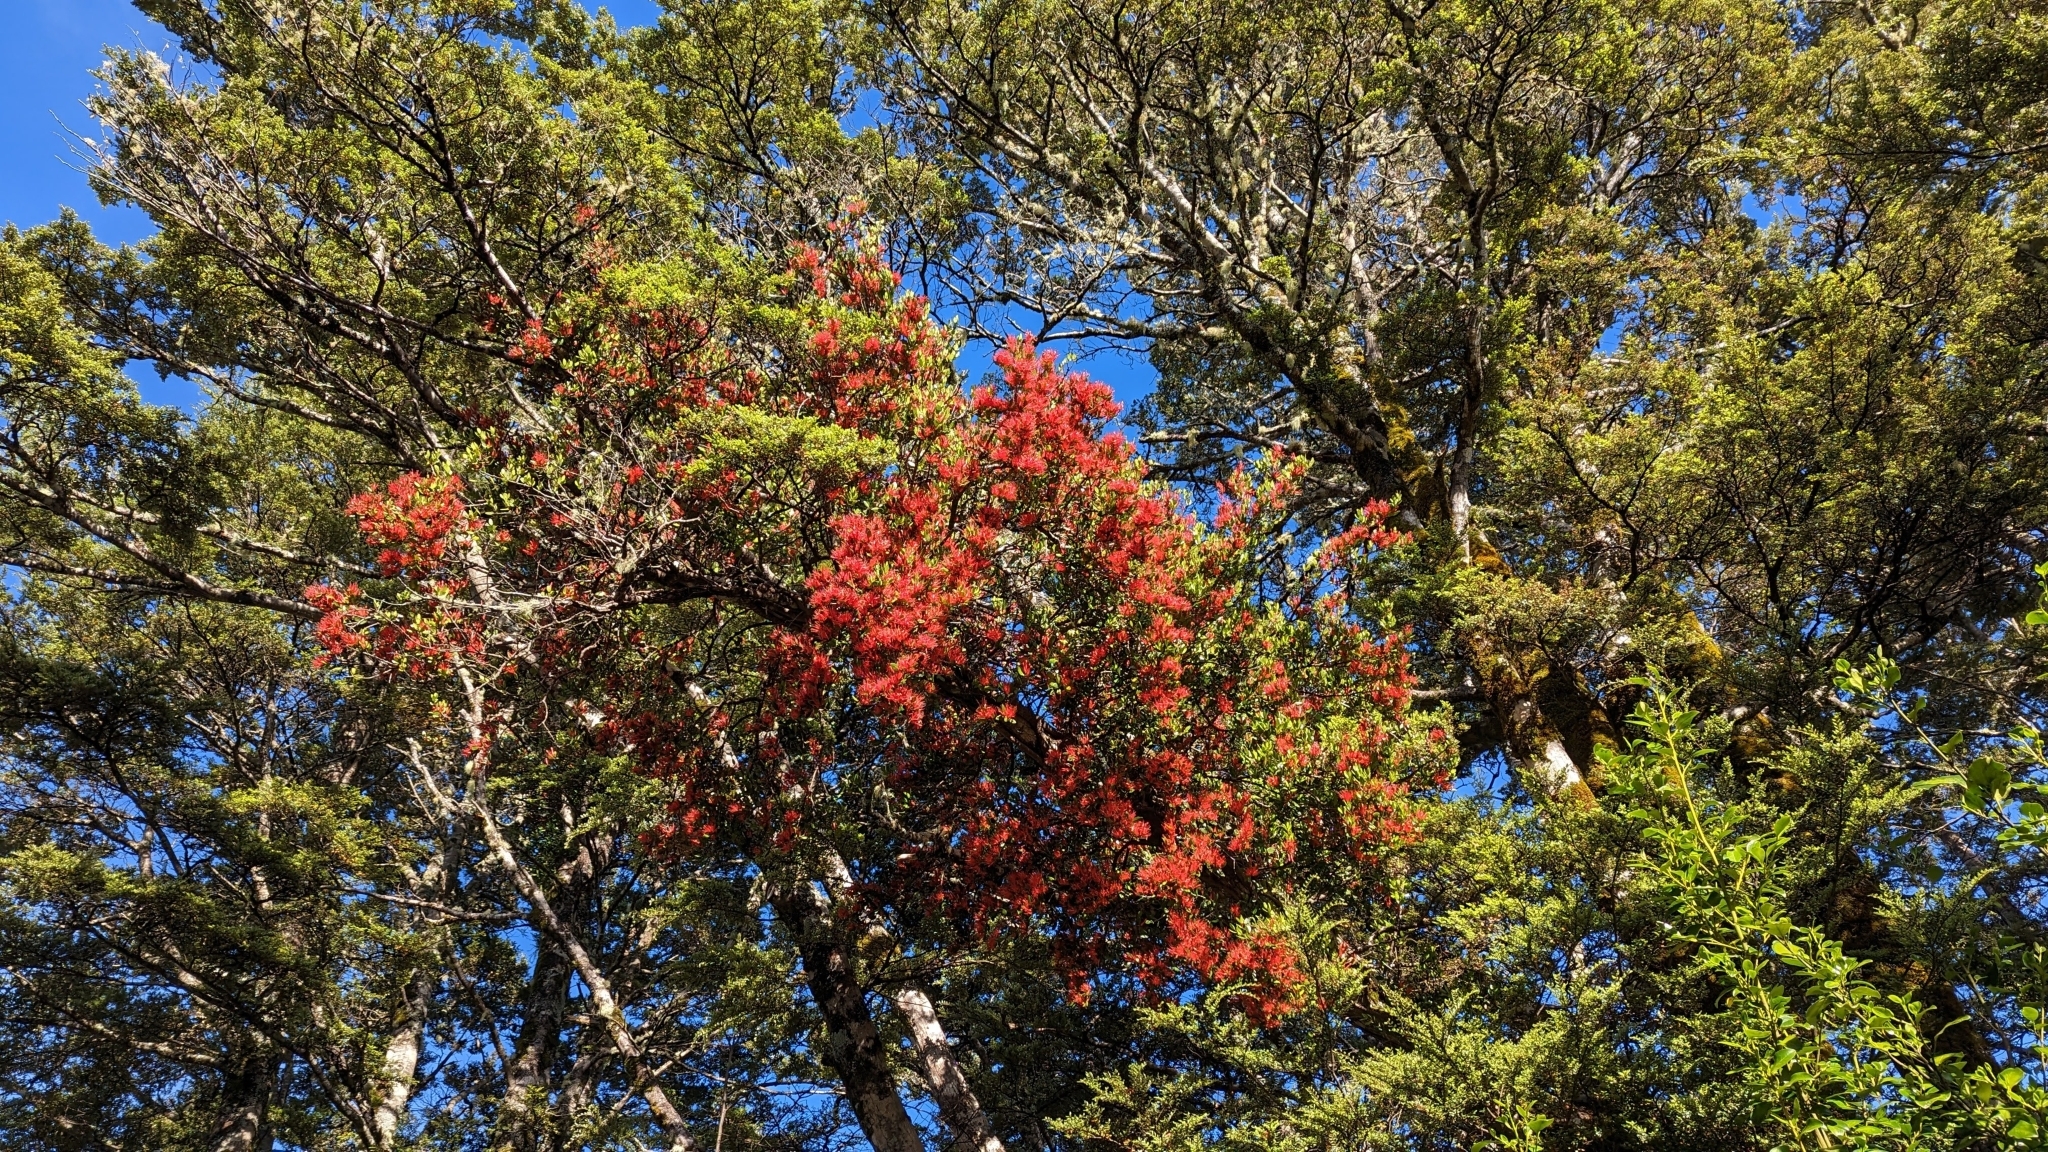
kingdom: Plantae
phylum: Tracheophyta
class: Magnoliopsida
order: Santalales
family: Loranthaceae
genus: Peraxilla
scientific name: Peraxilla tetrapetala
